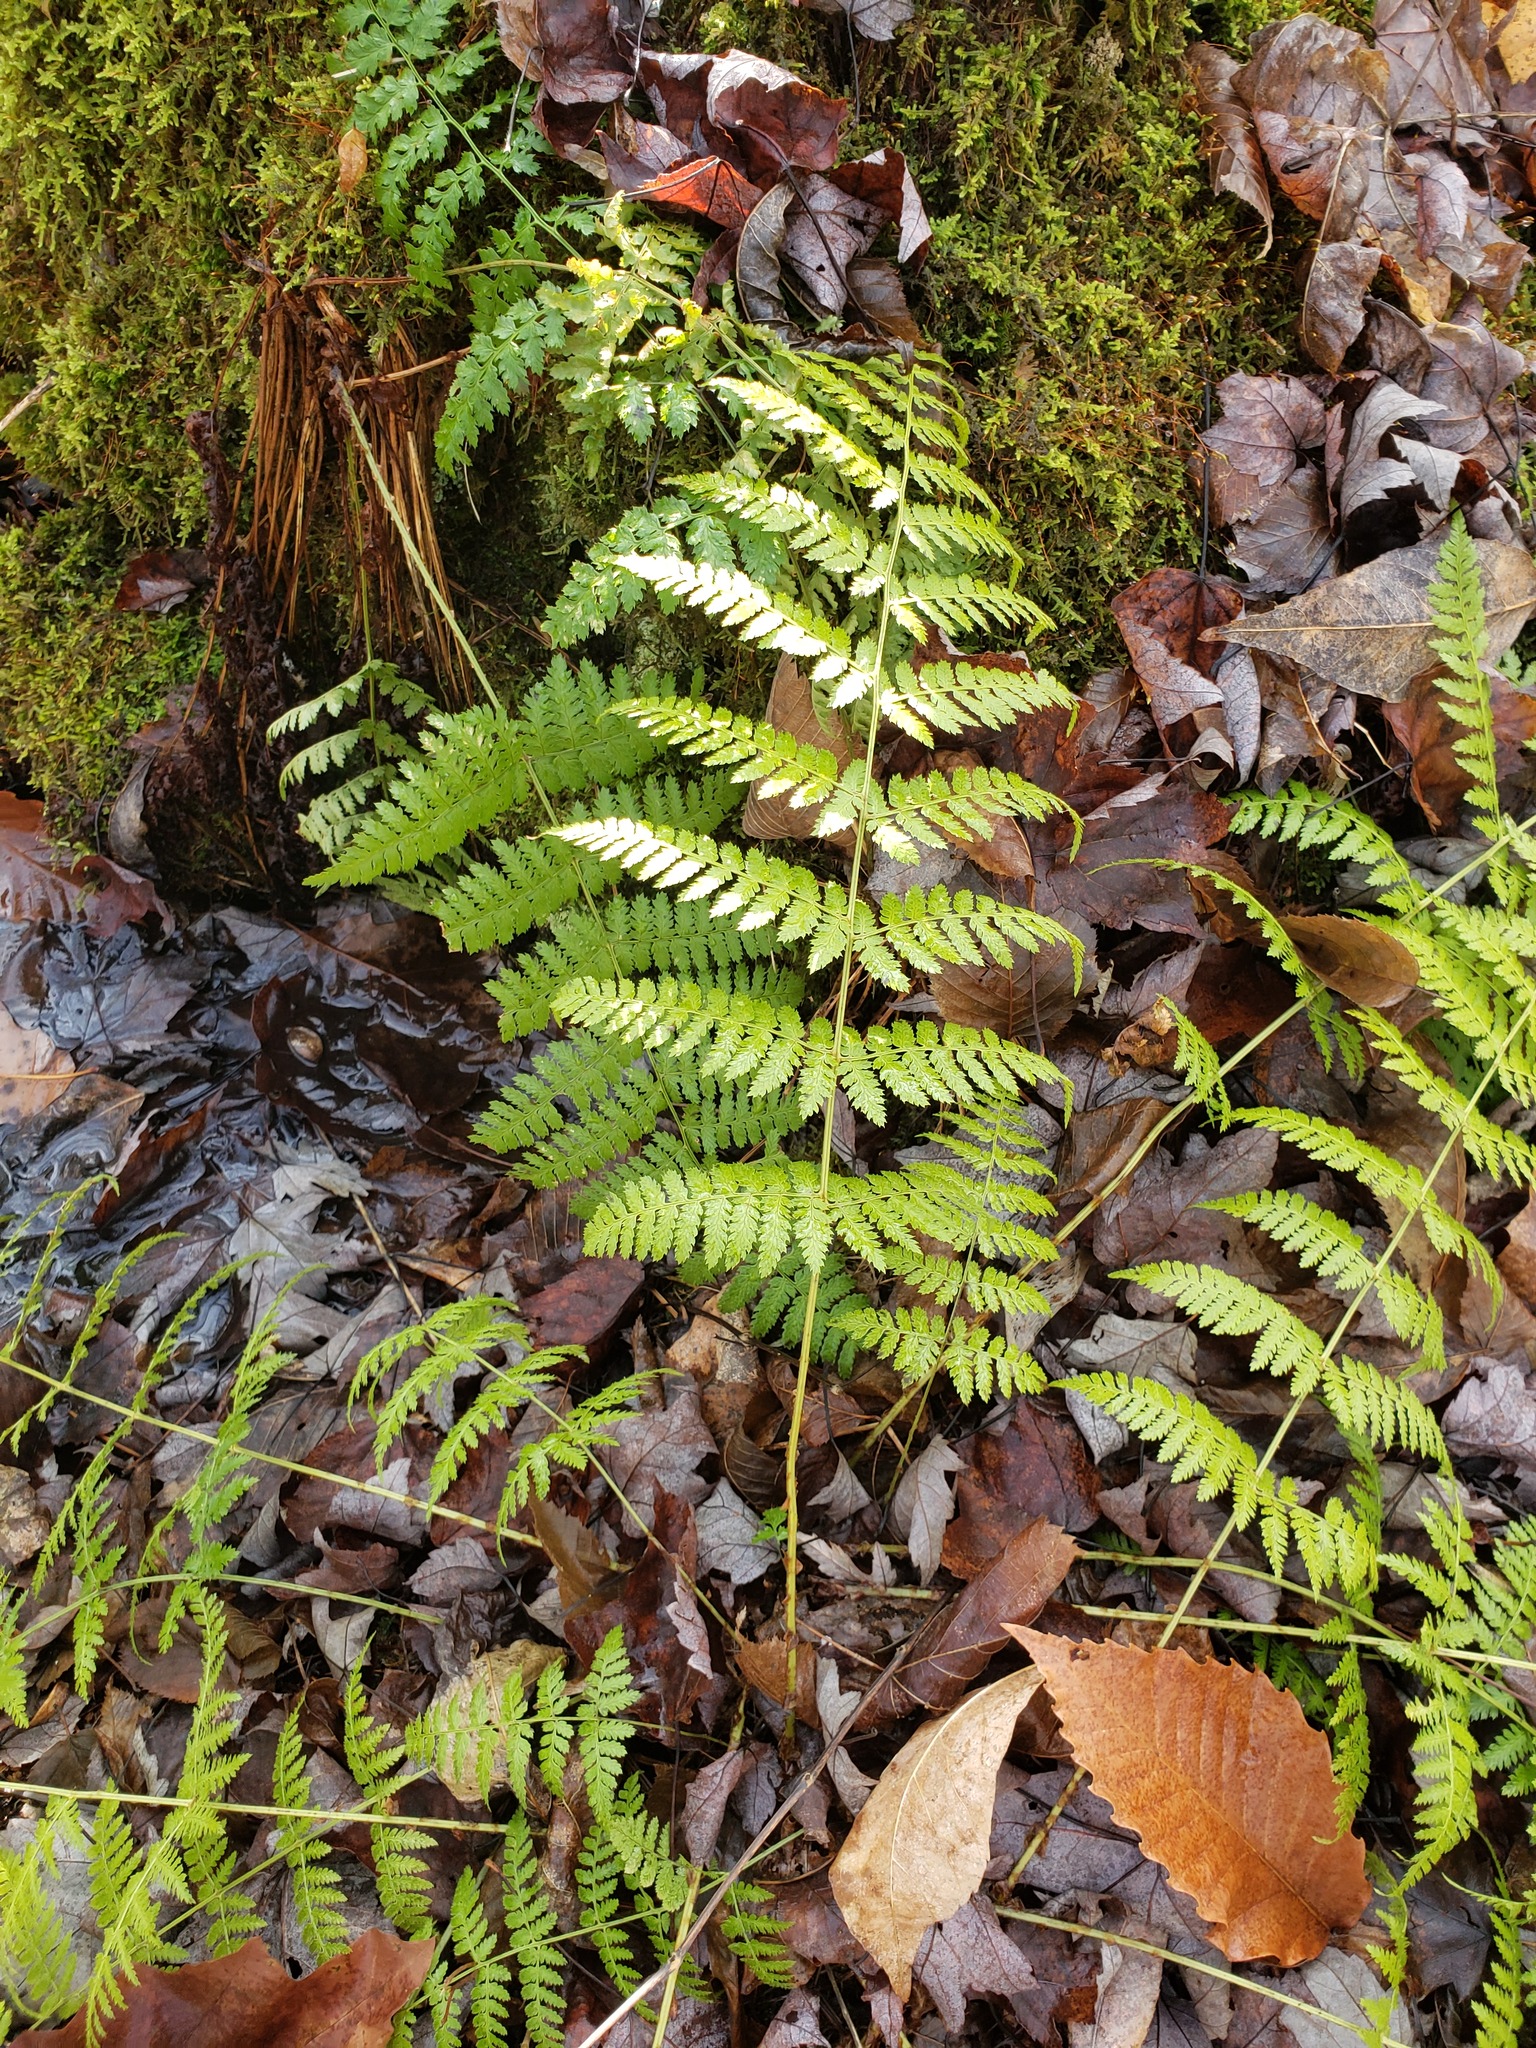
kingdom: Plantae
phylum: Tracheophyta
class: Polypodiopsida
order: Polypodiales
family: Dryopteridaceae
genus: Dryopteris
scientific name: Dryopteris intermedia
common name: Evergreen wood fern
